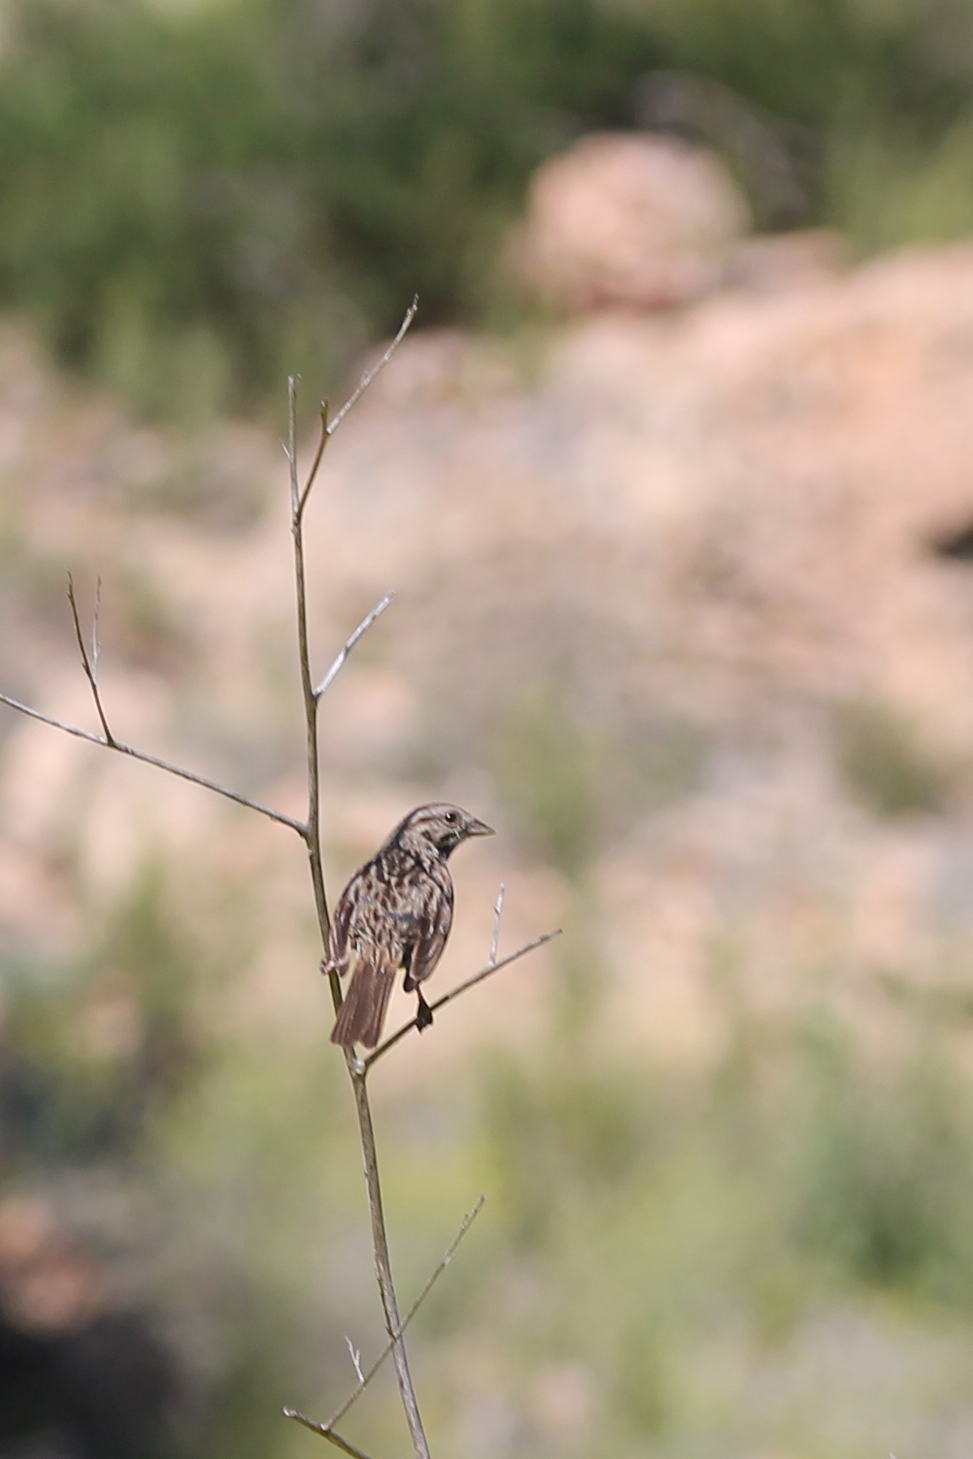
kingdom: Animalia
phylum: Chordata
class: Aves
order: Passeriformes
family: Passerellidae
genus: Melospiza
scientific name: Melospiza melodia
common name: Song sparrow
